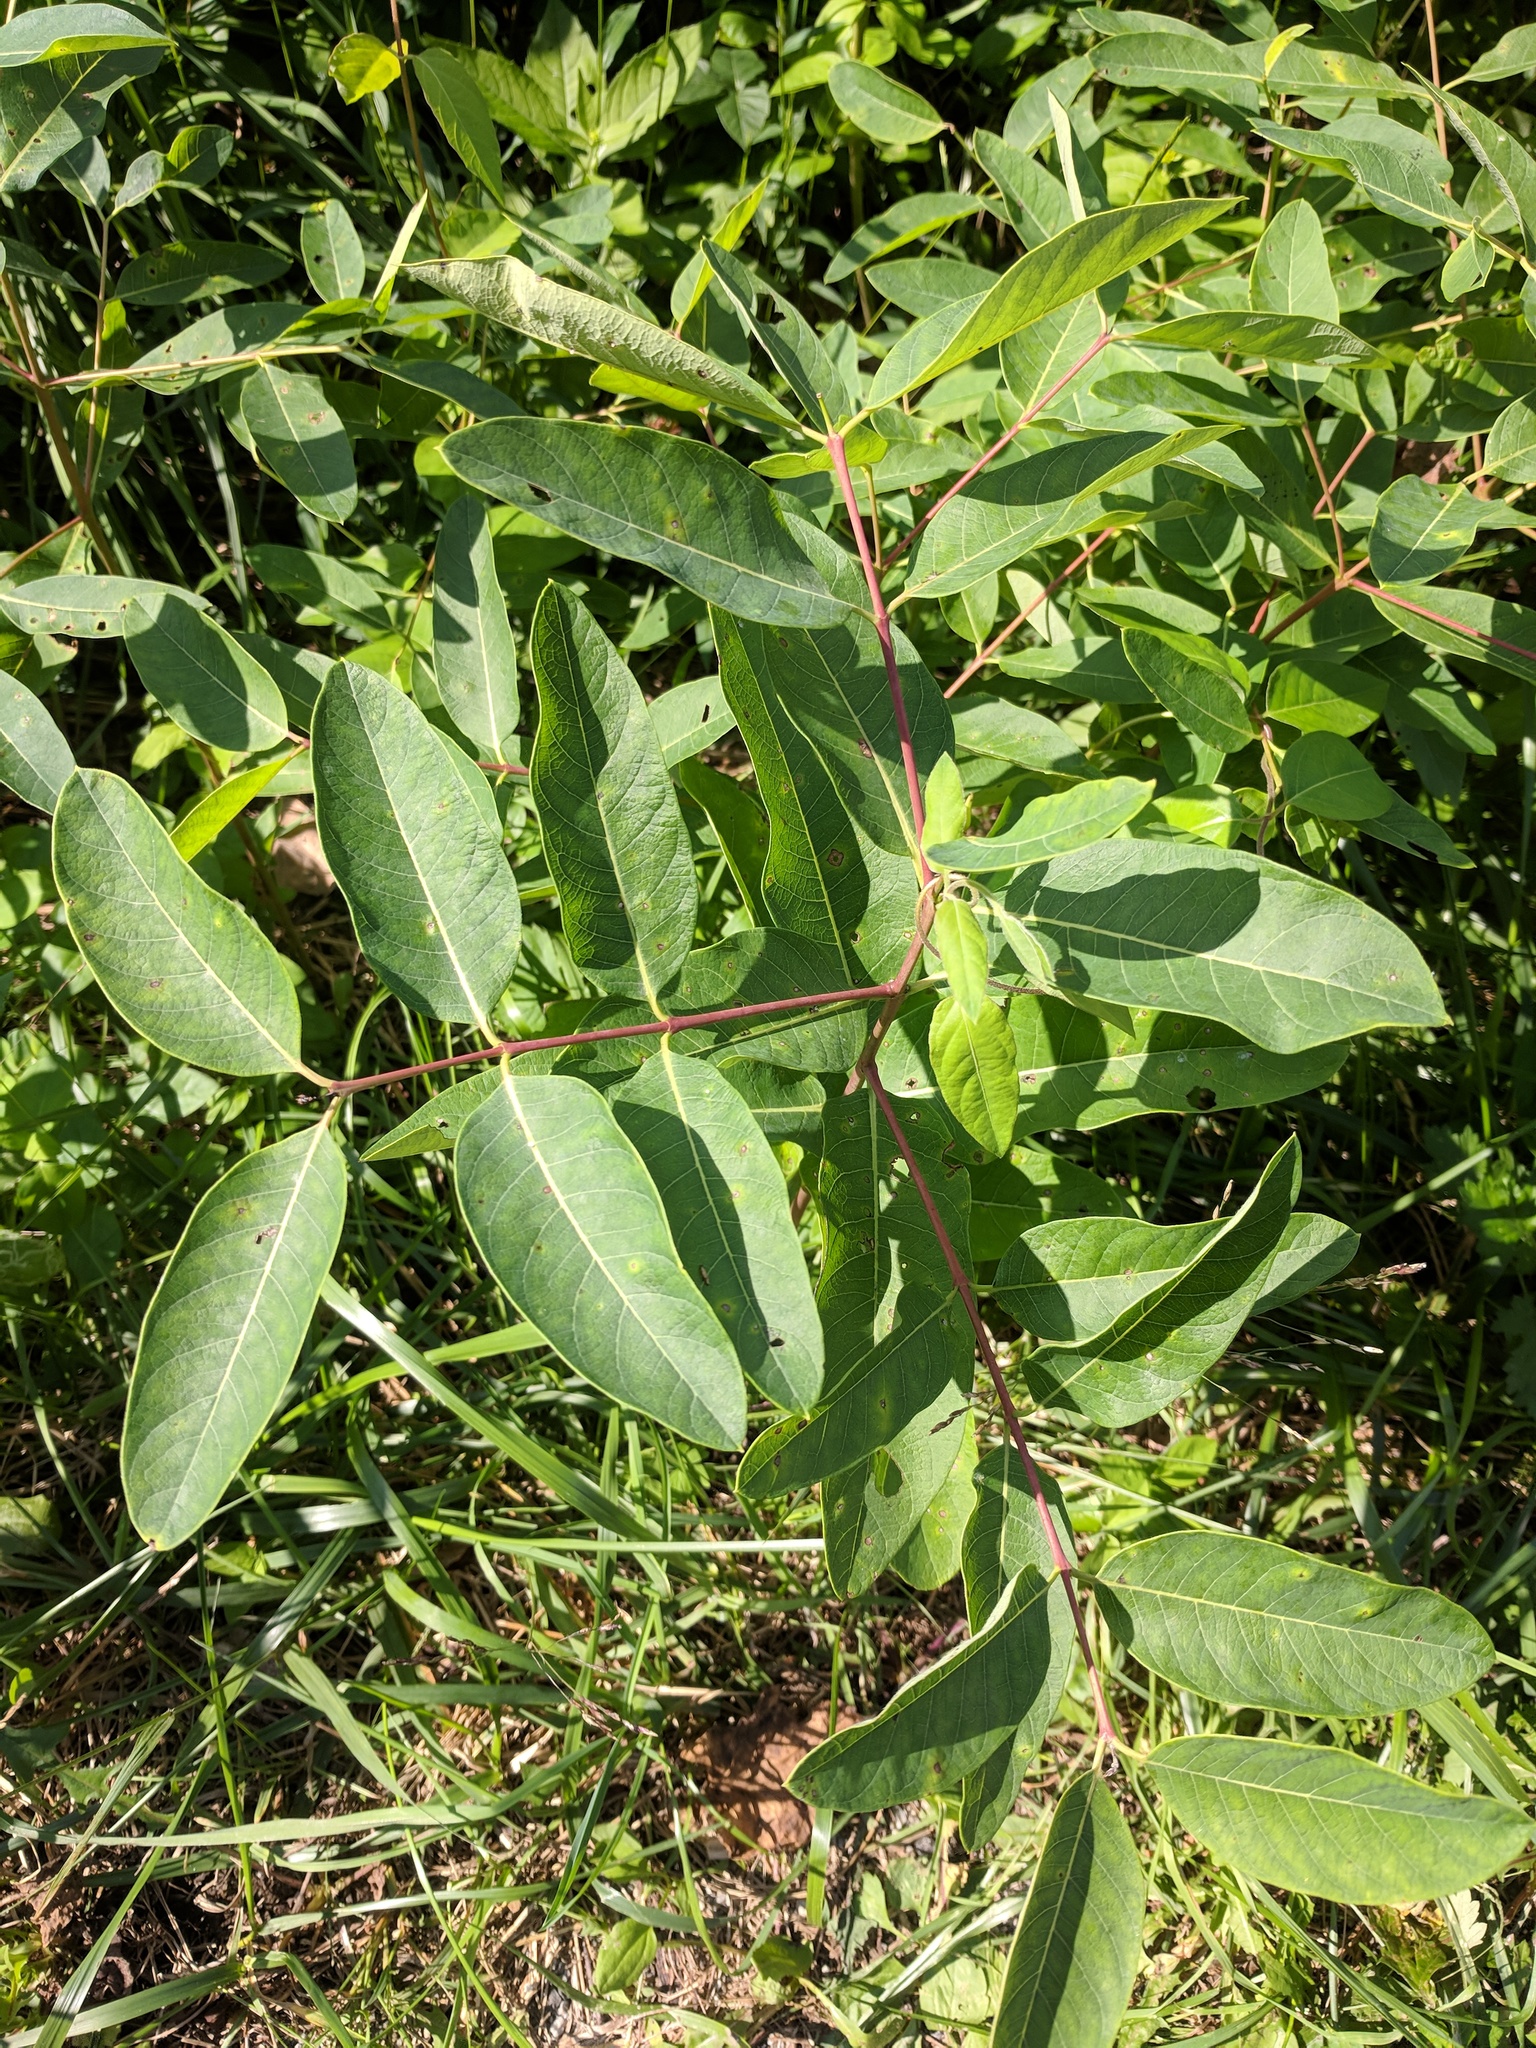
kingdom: Plantae
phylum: Tracheophyta
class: Magnoliopsida
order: Gentianales
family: Apocynaceae
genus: Apocynum
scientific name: Apocynum cannabinum
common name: Hemp dogbane
